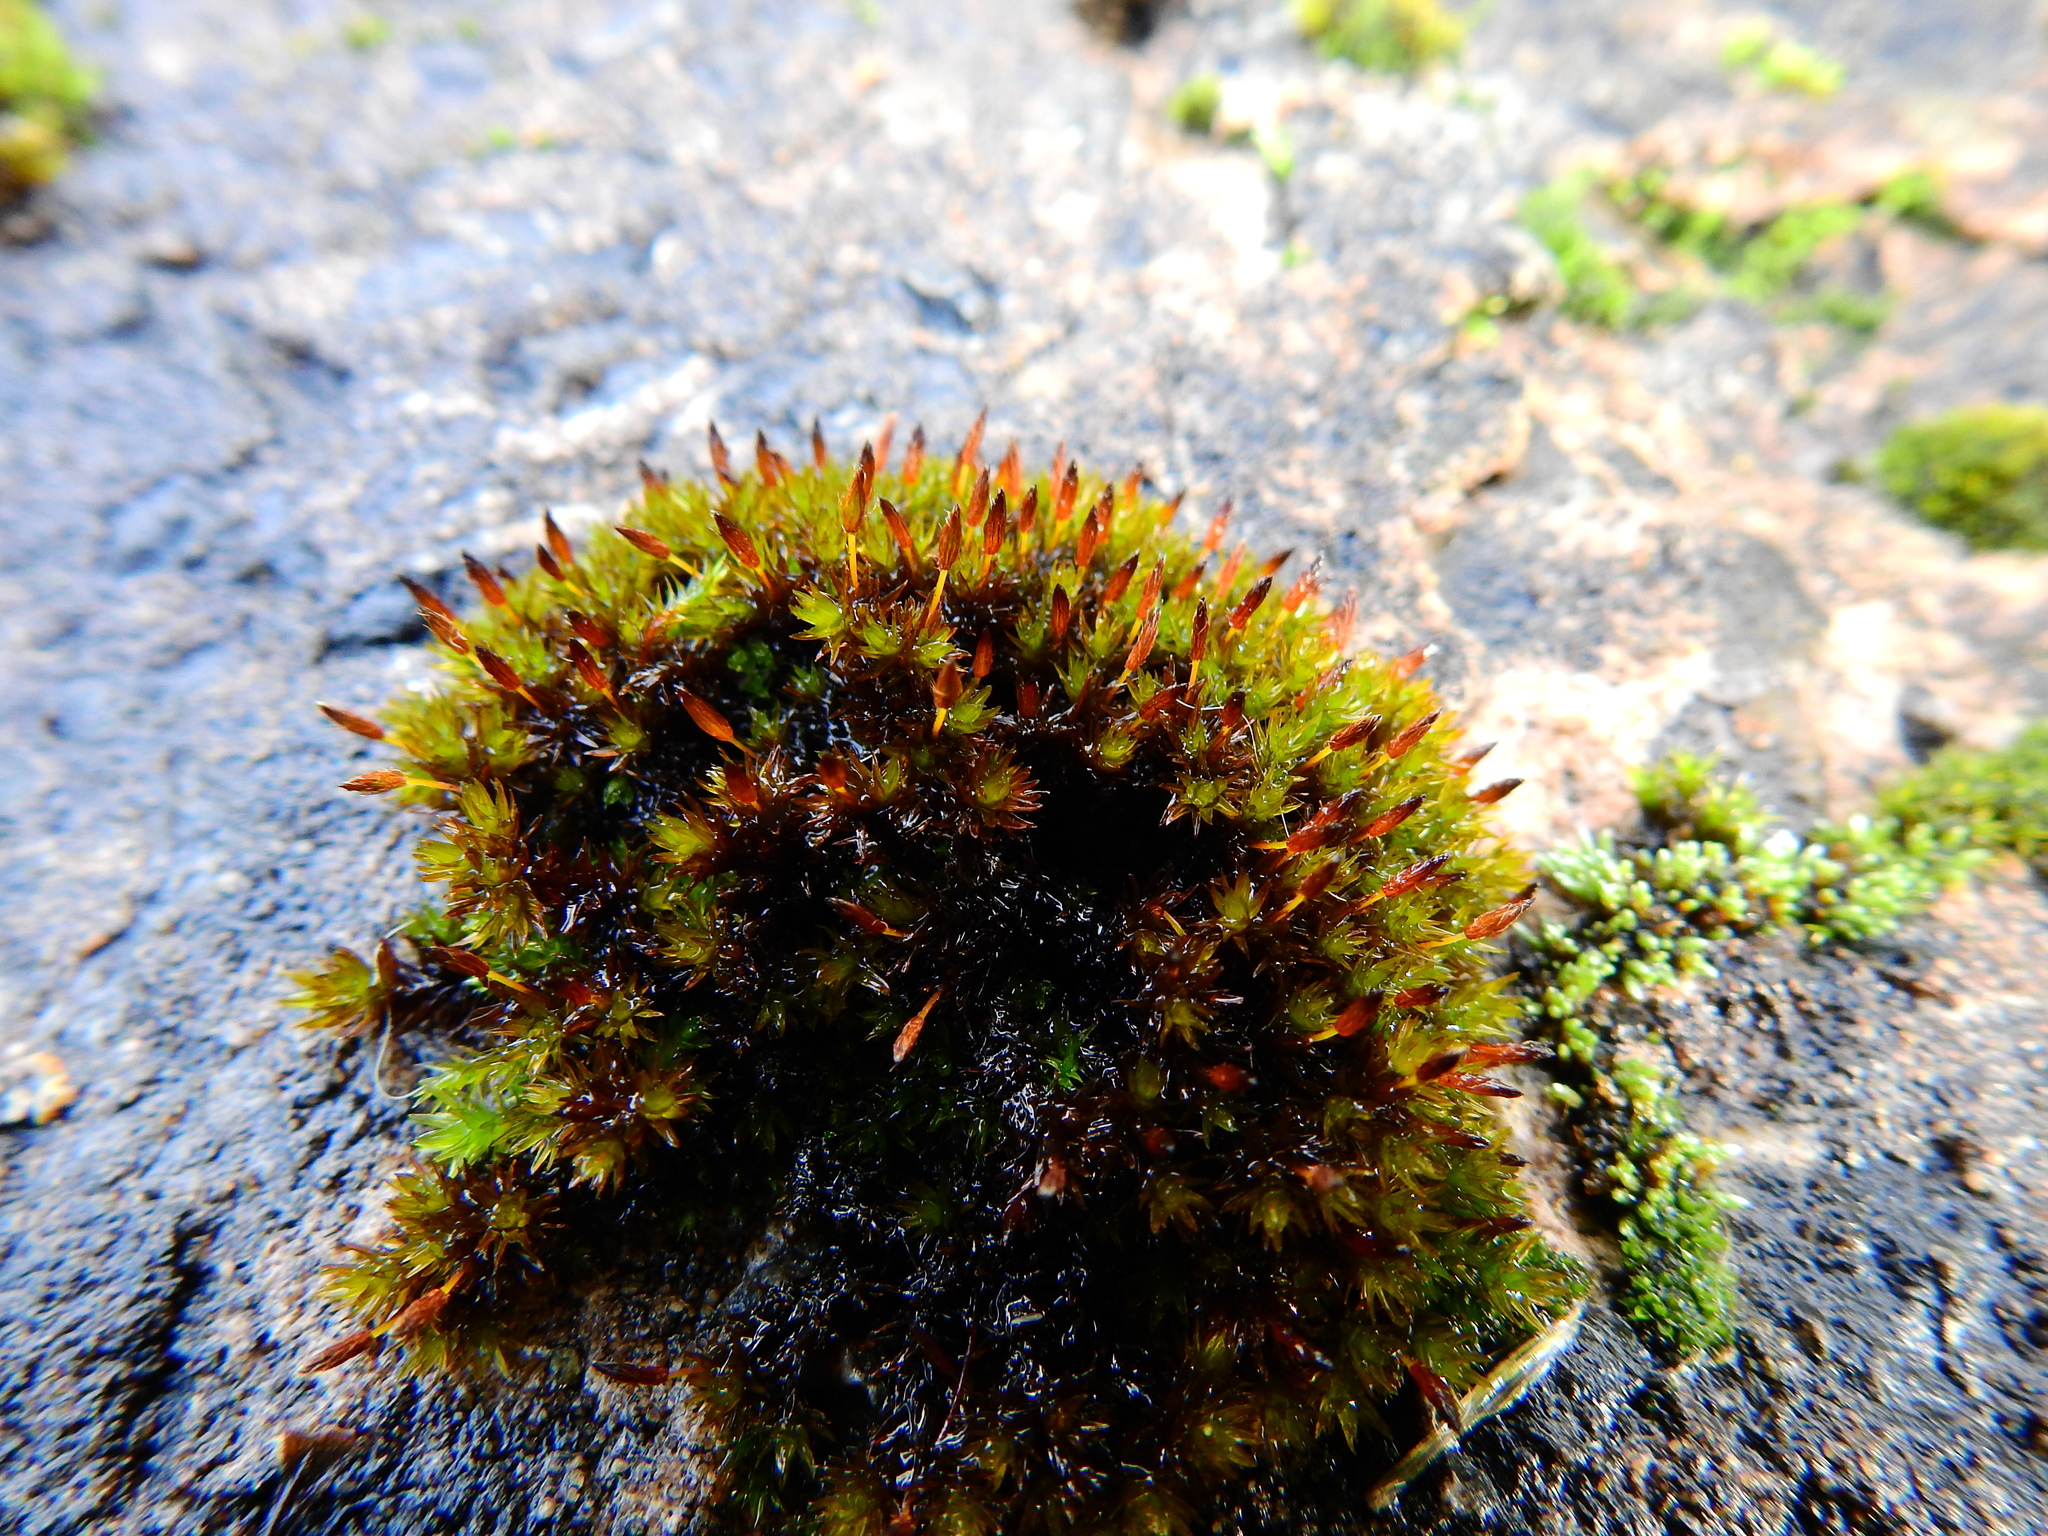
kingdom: Plantae
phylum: Bryophyta
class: Bryopsida
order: Orthotrichales
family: Orthotrichaceae
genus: Orthotrichum
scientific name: Orthotrichum anomalum
